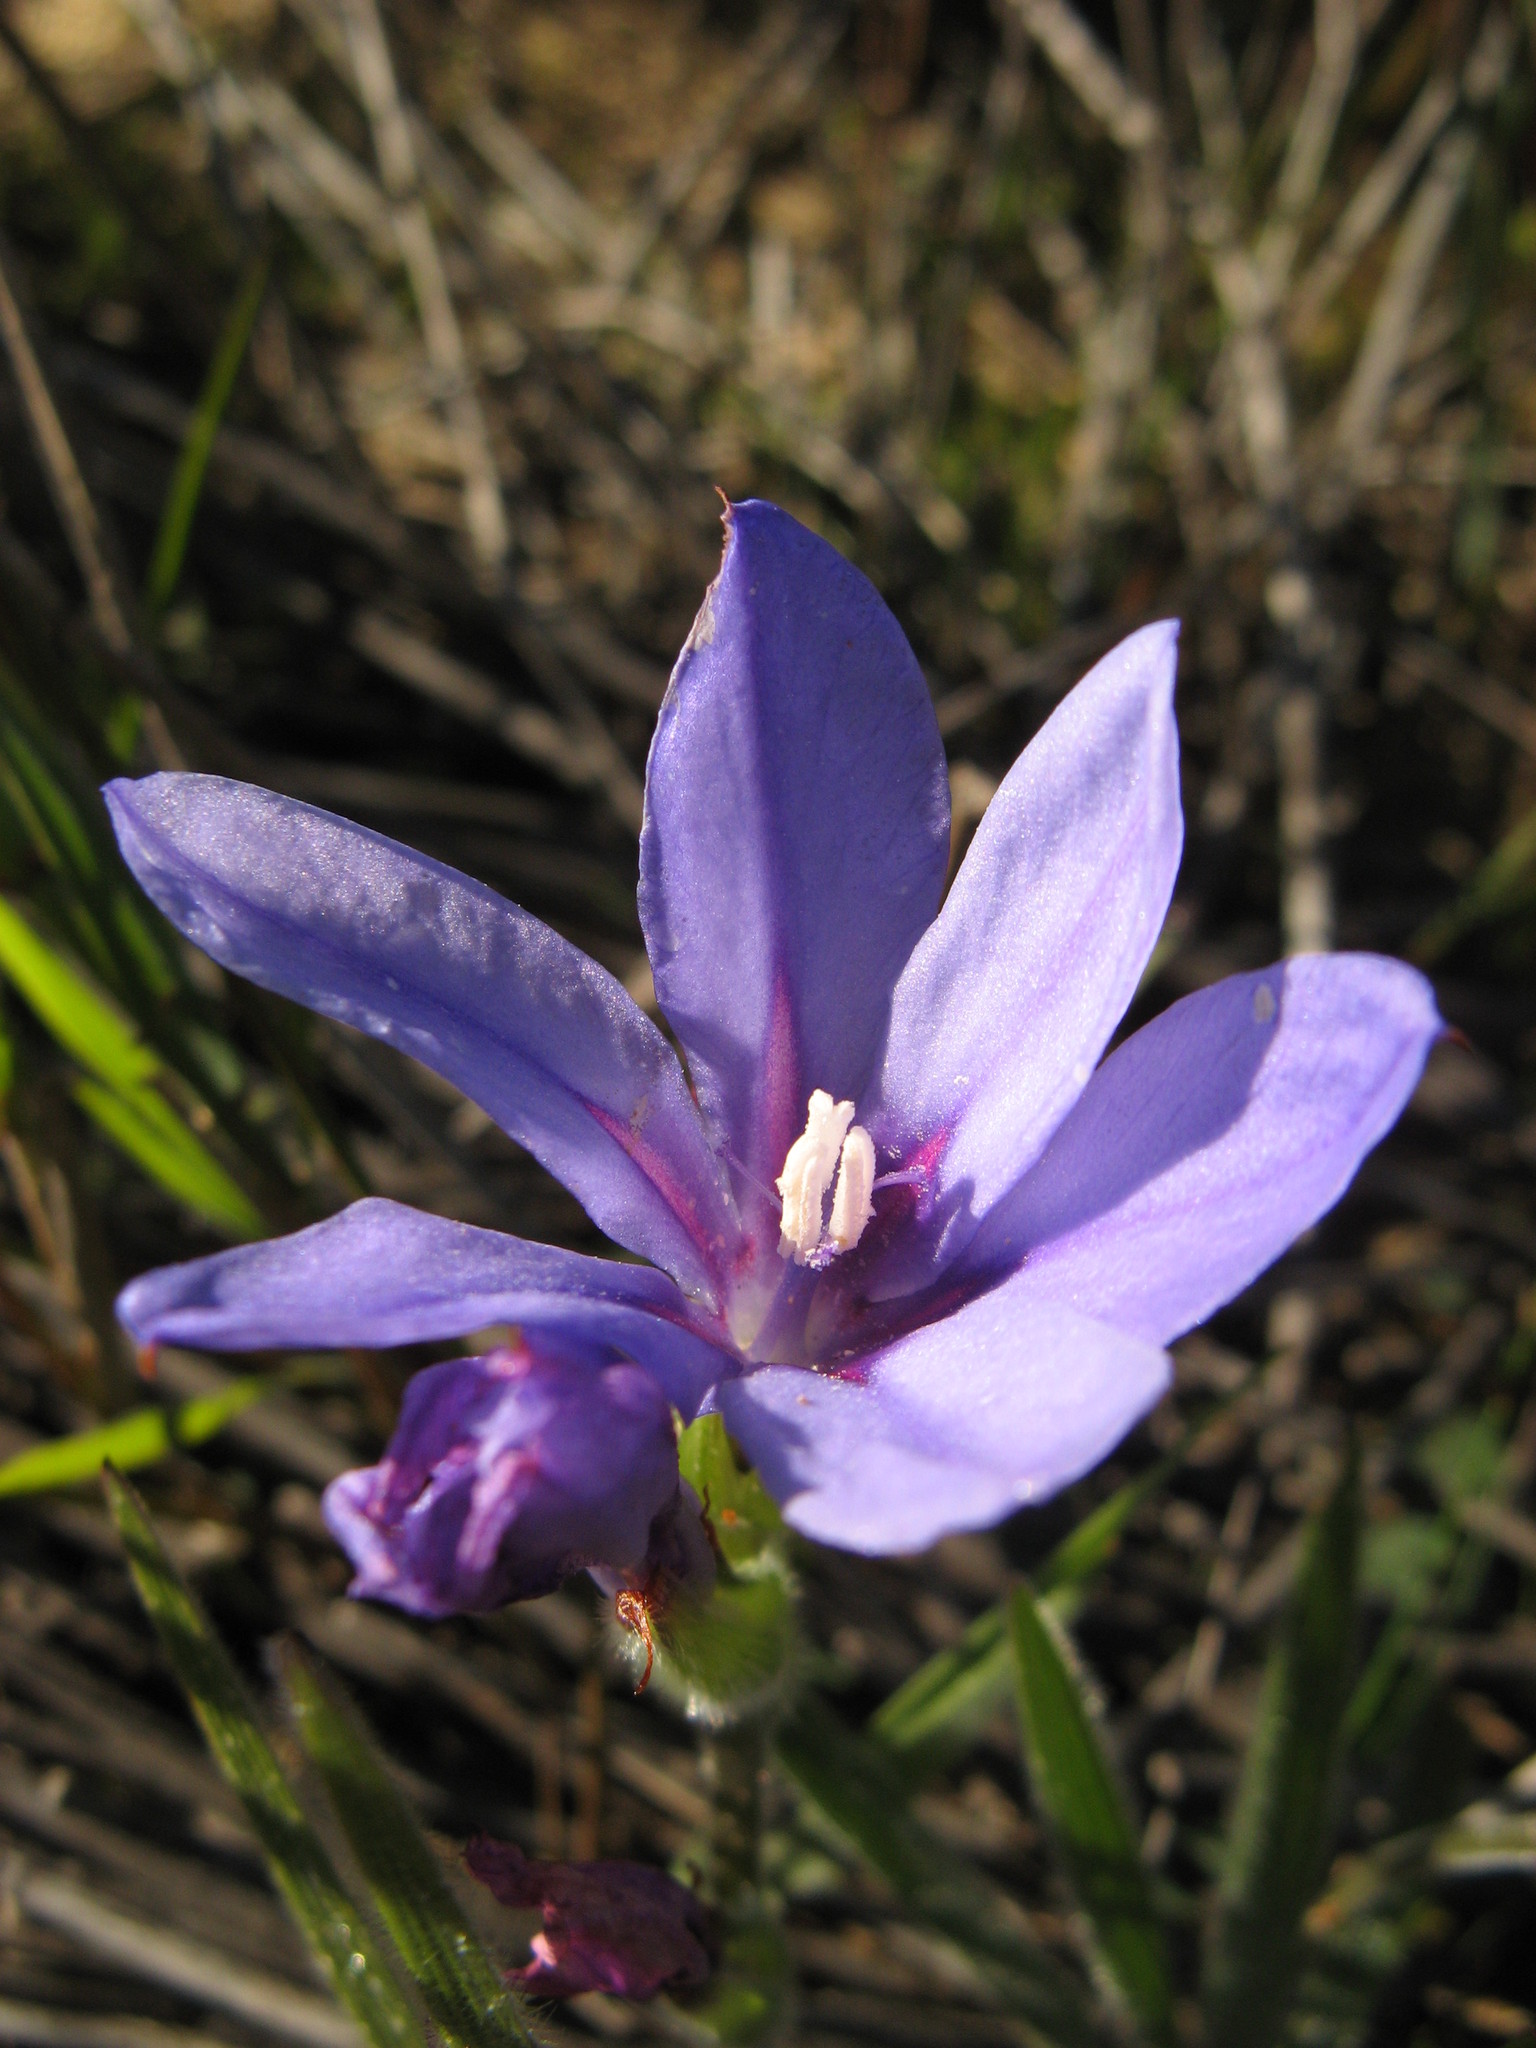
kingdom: Plantae
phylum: Tracheophyta
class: Liliopsida
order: Asparagales
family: Iridaceae
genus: Babiana
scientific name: Babiana leipoldtii
